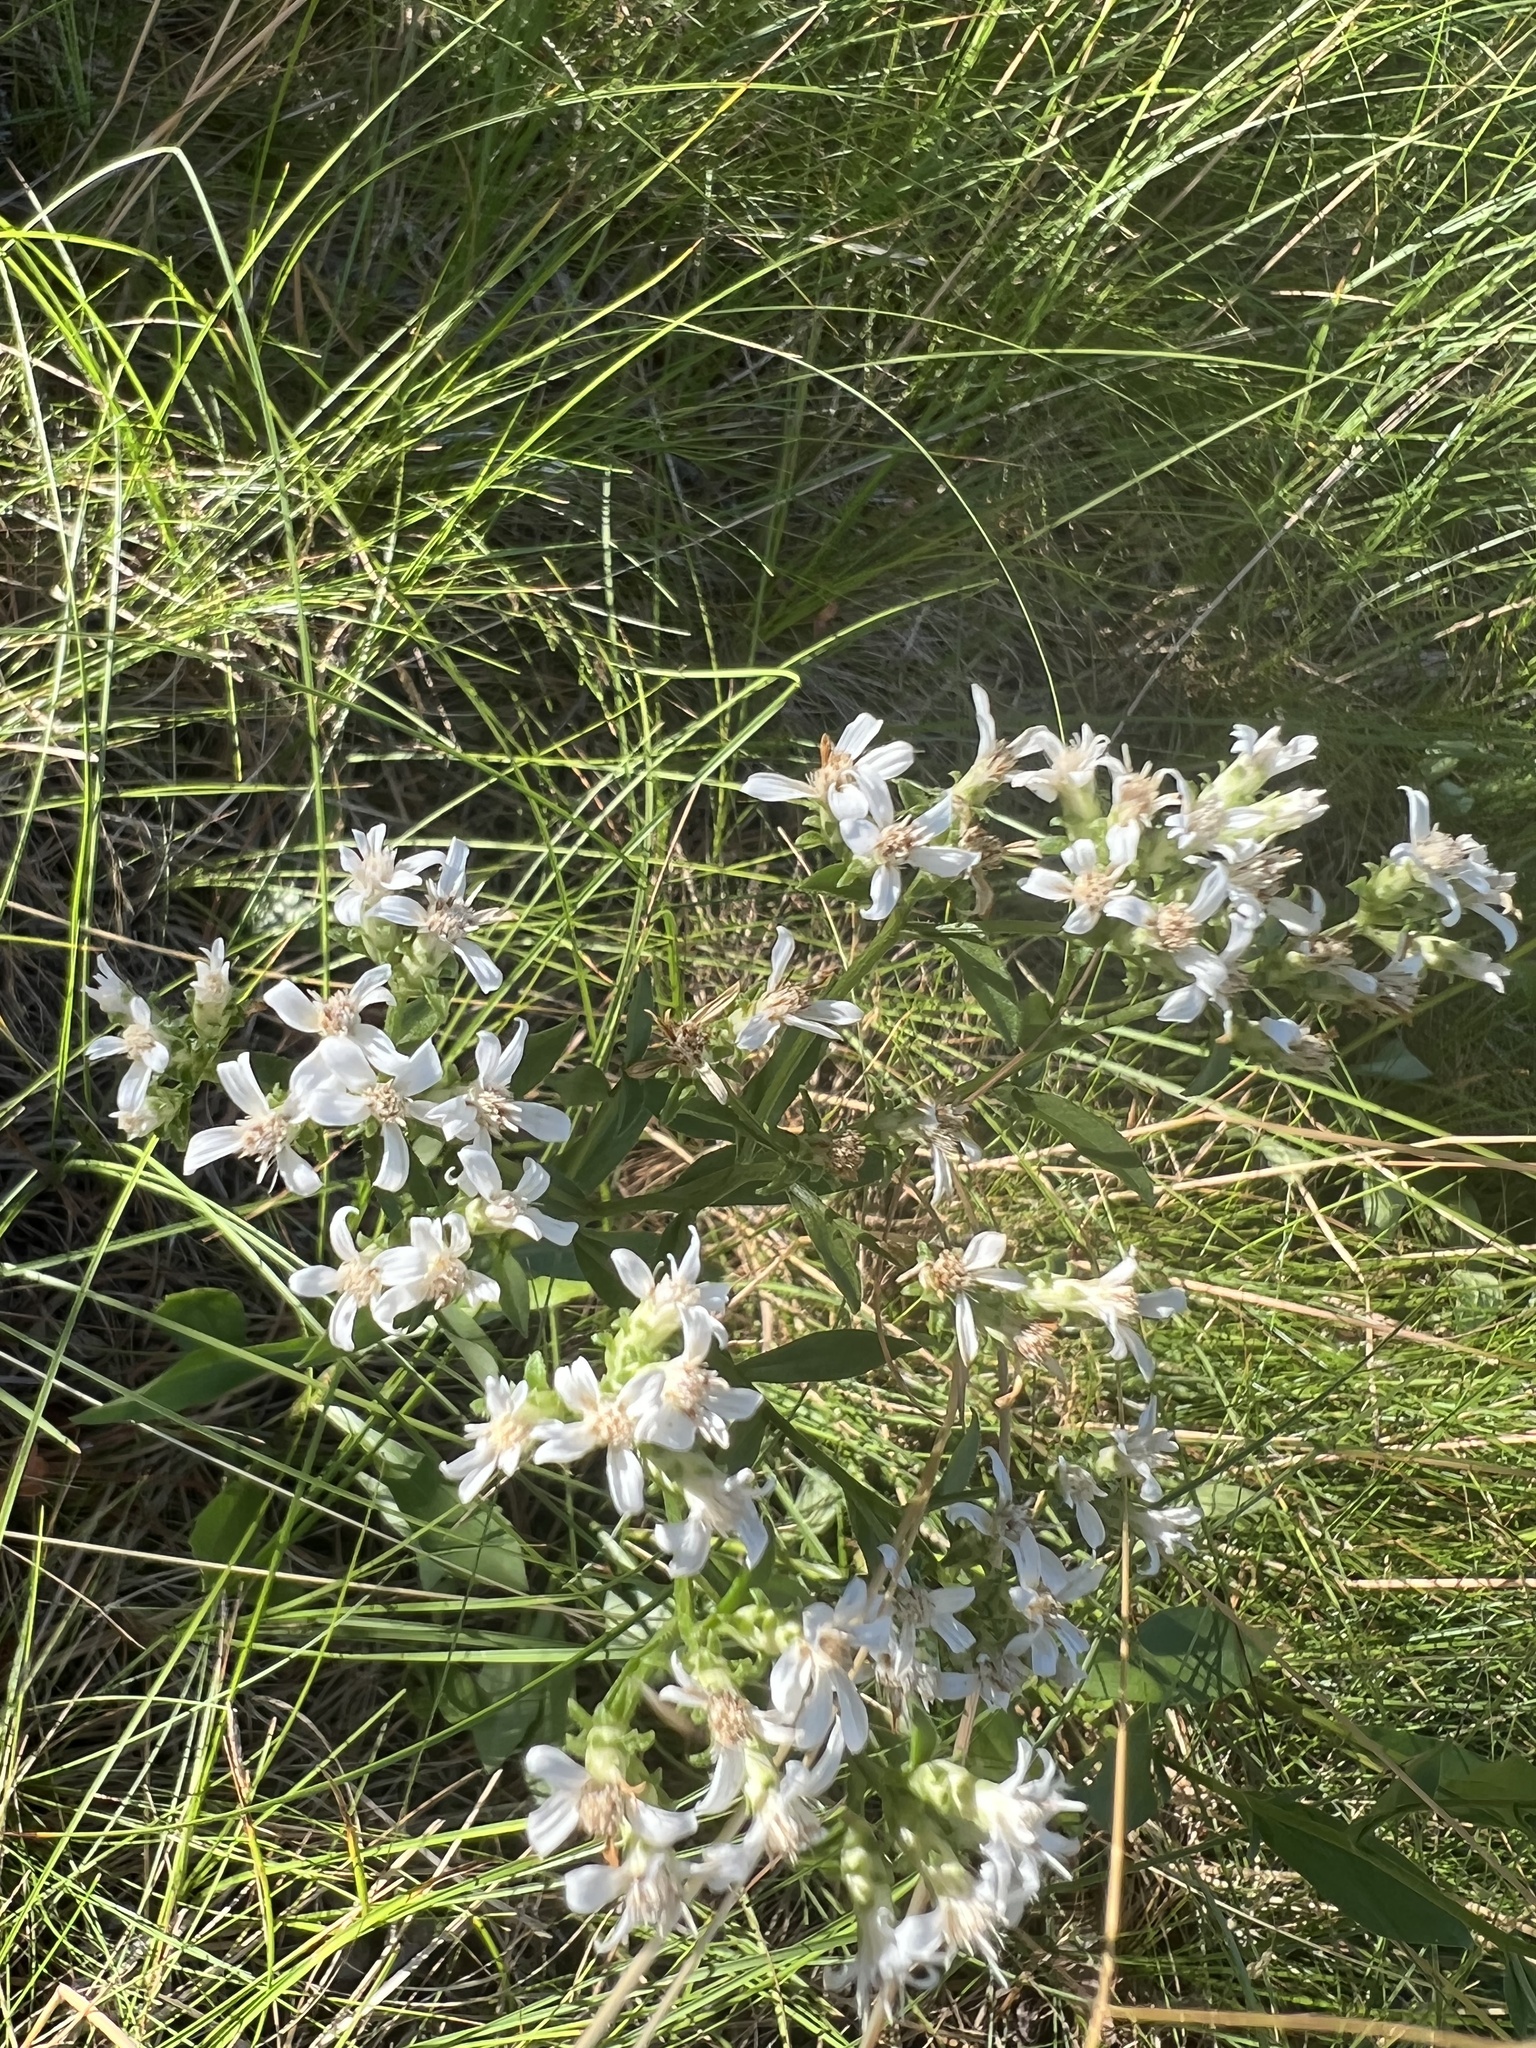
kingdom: Plantae
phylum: Tracheophyta
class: Magnoliopsida
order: Asterales
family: Asteraceae
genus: Sericocarpus
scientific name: Sericocarpus asteroides
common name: Toothed white-top aster
